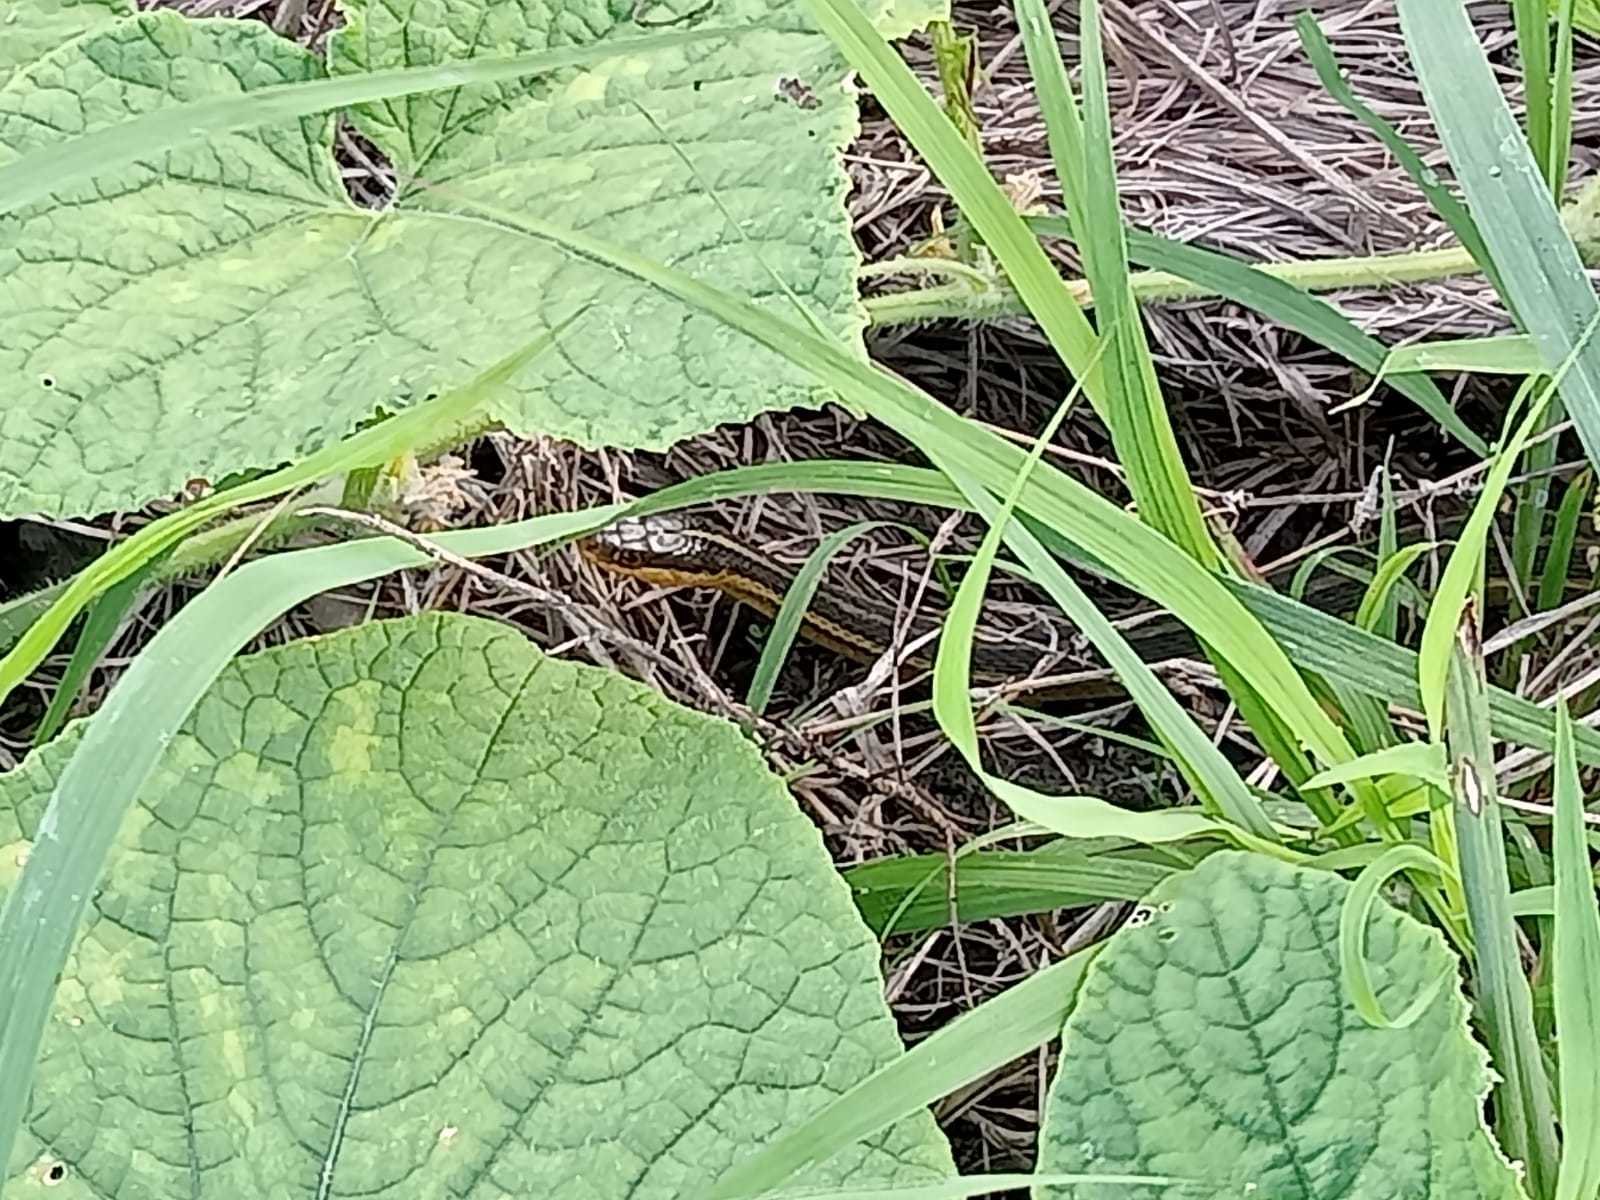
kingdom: Animalia
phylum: Chordata
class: Squamata
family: Colubridae
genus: Thamnophis
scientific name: Thamnophis proximus
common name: Western ribbon snake
